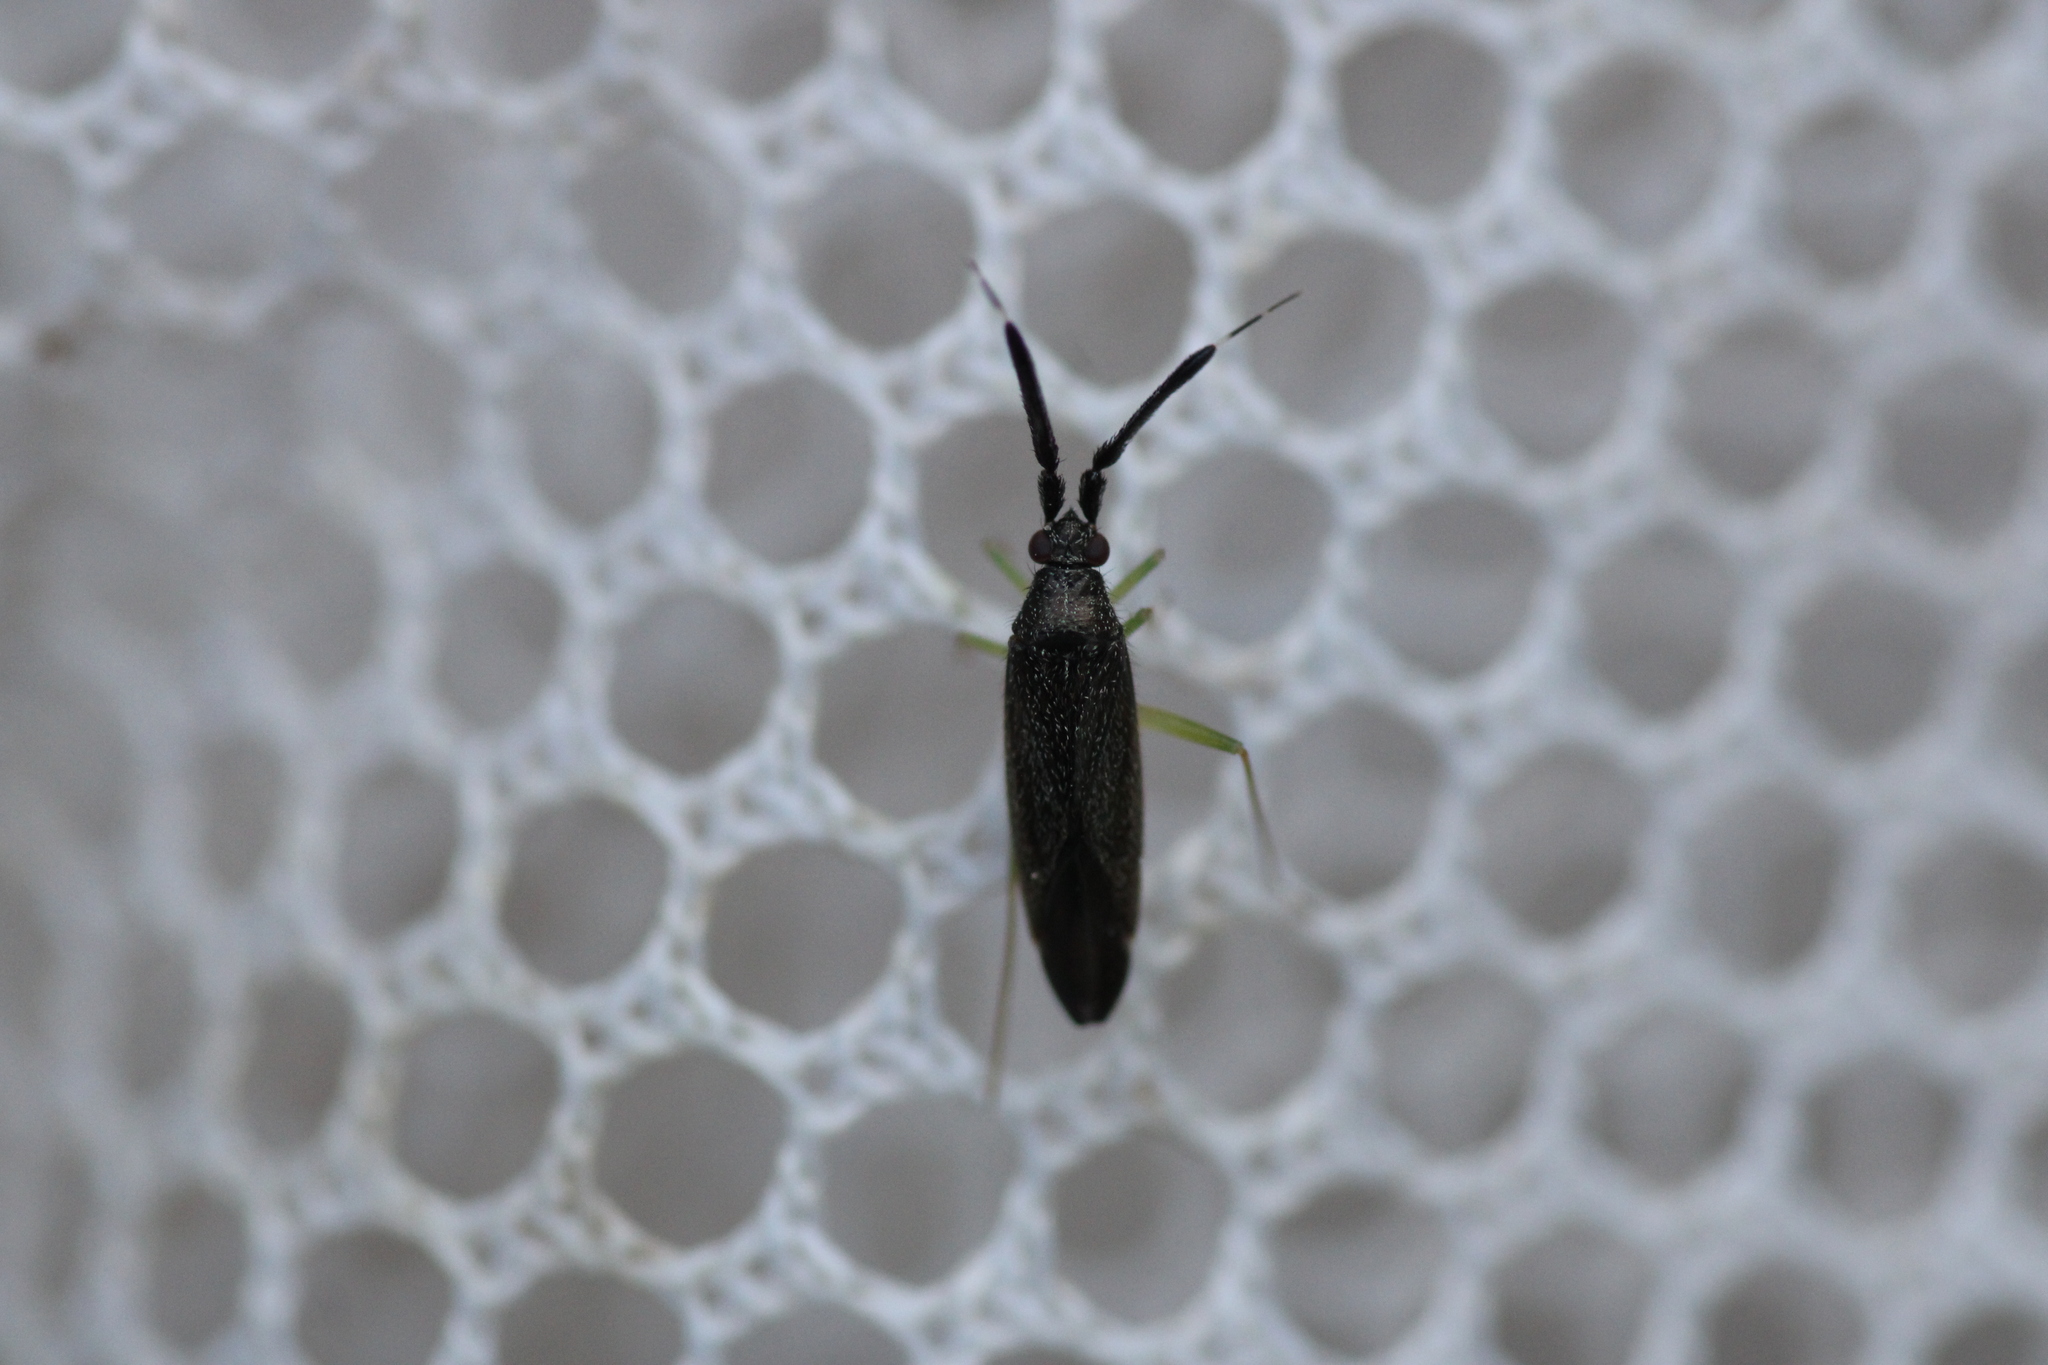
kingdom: Animalia
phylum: Arthropoda
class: Insecta
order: Hemiptera
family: Miridae
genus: Heterotoma
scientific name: Heterotoma planicornis
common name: Plant bug
